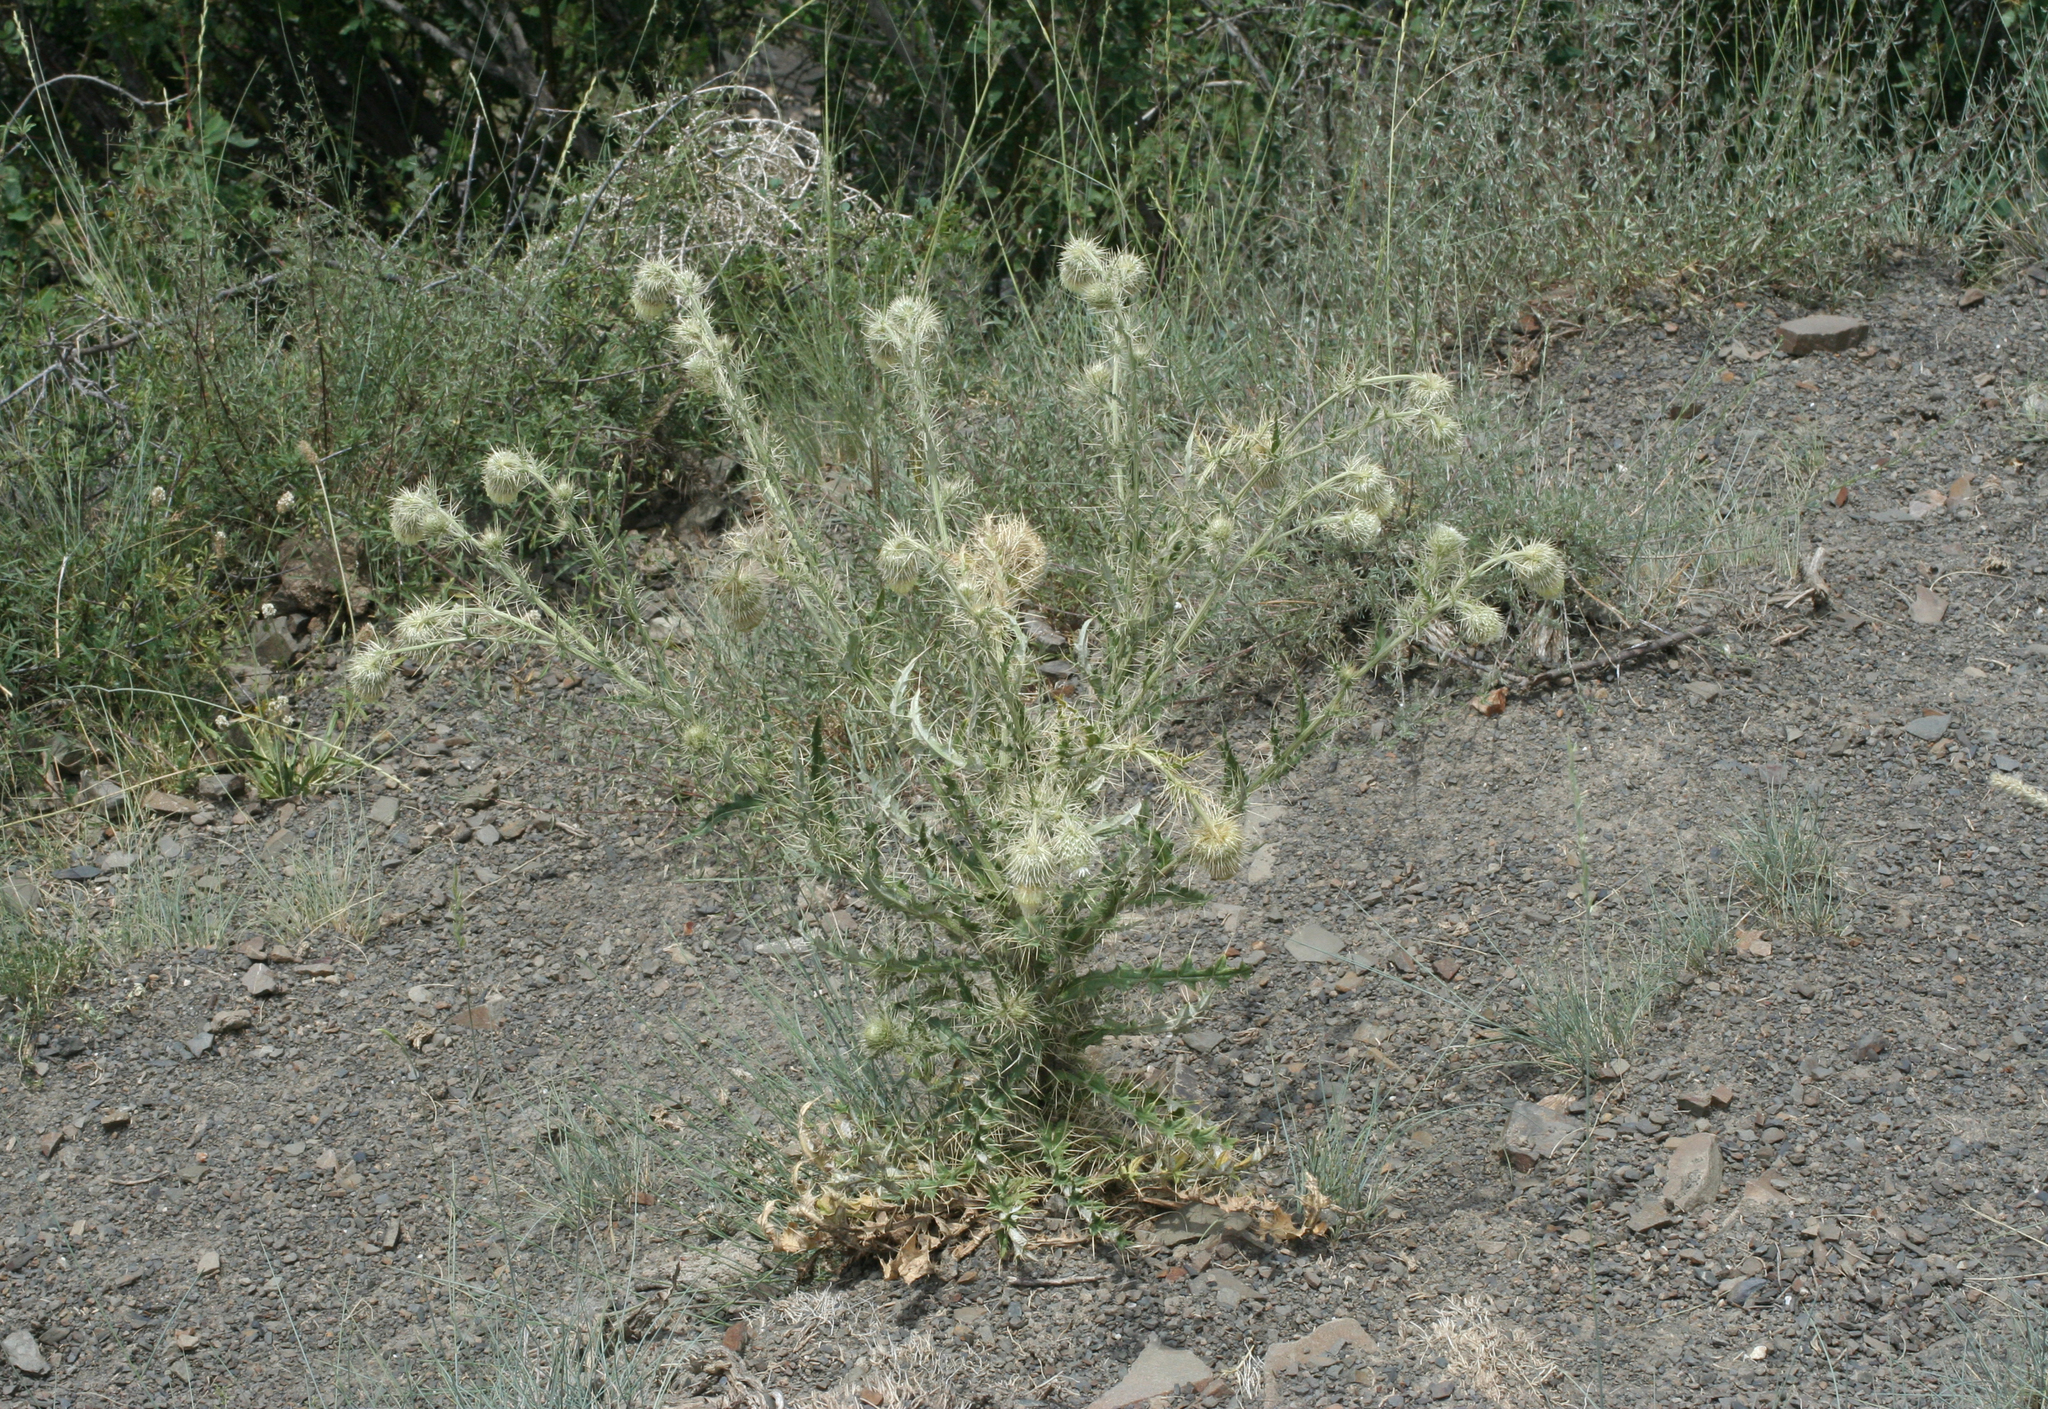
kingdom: Plantae
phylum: Tracheophyta
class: Magnoliopsida
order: Asterales
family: Asteraceae
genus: Cirsium
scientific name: Cirsium echinus
